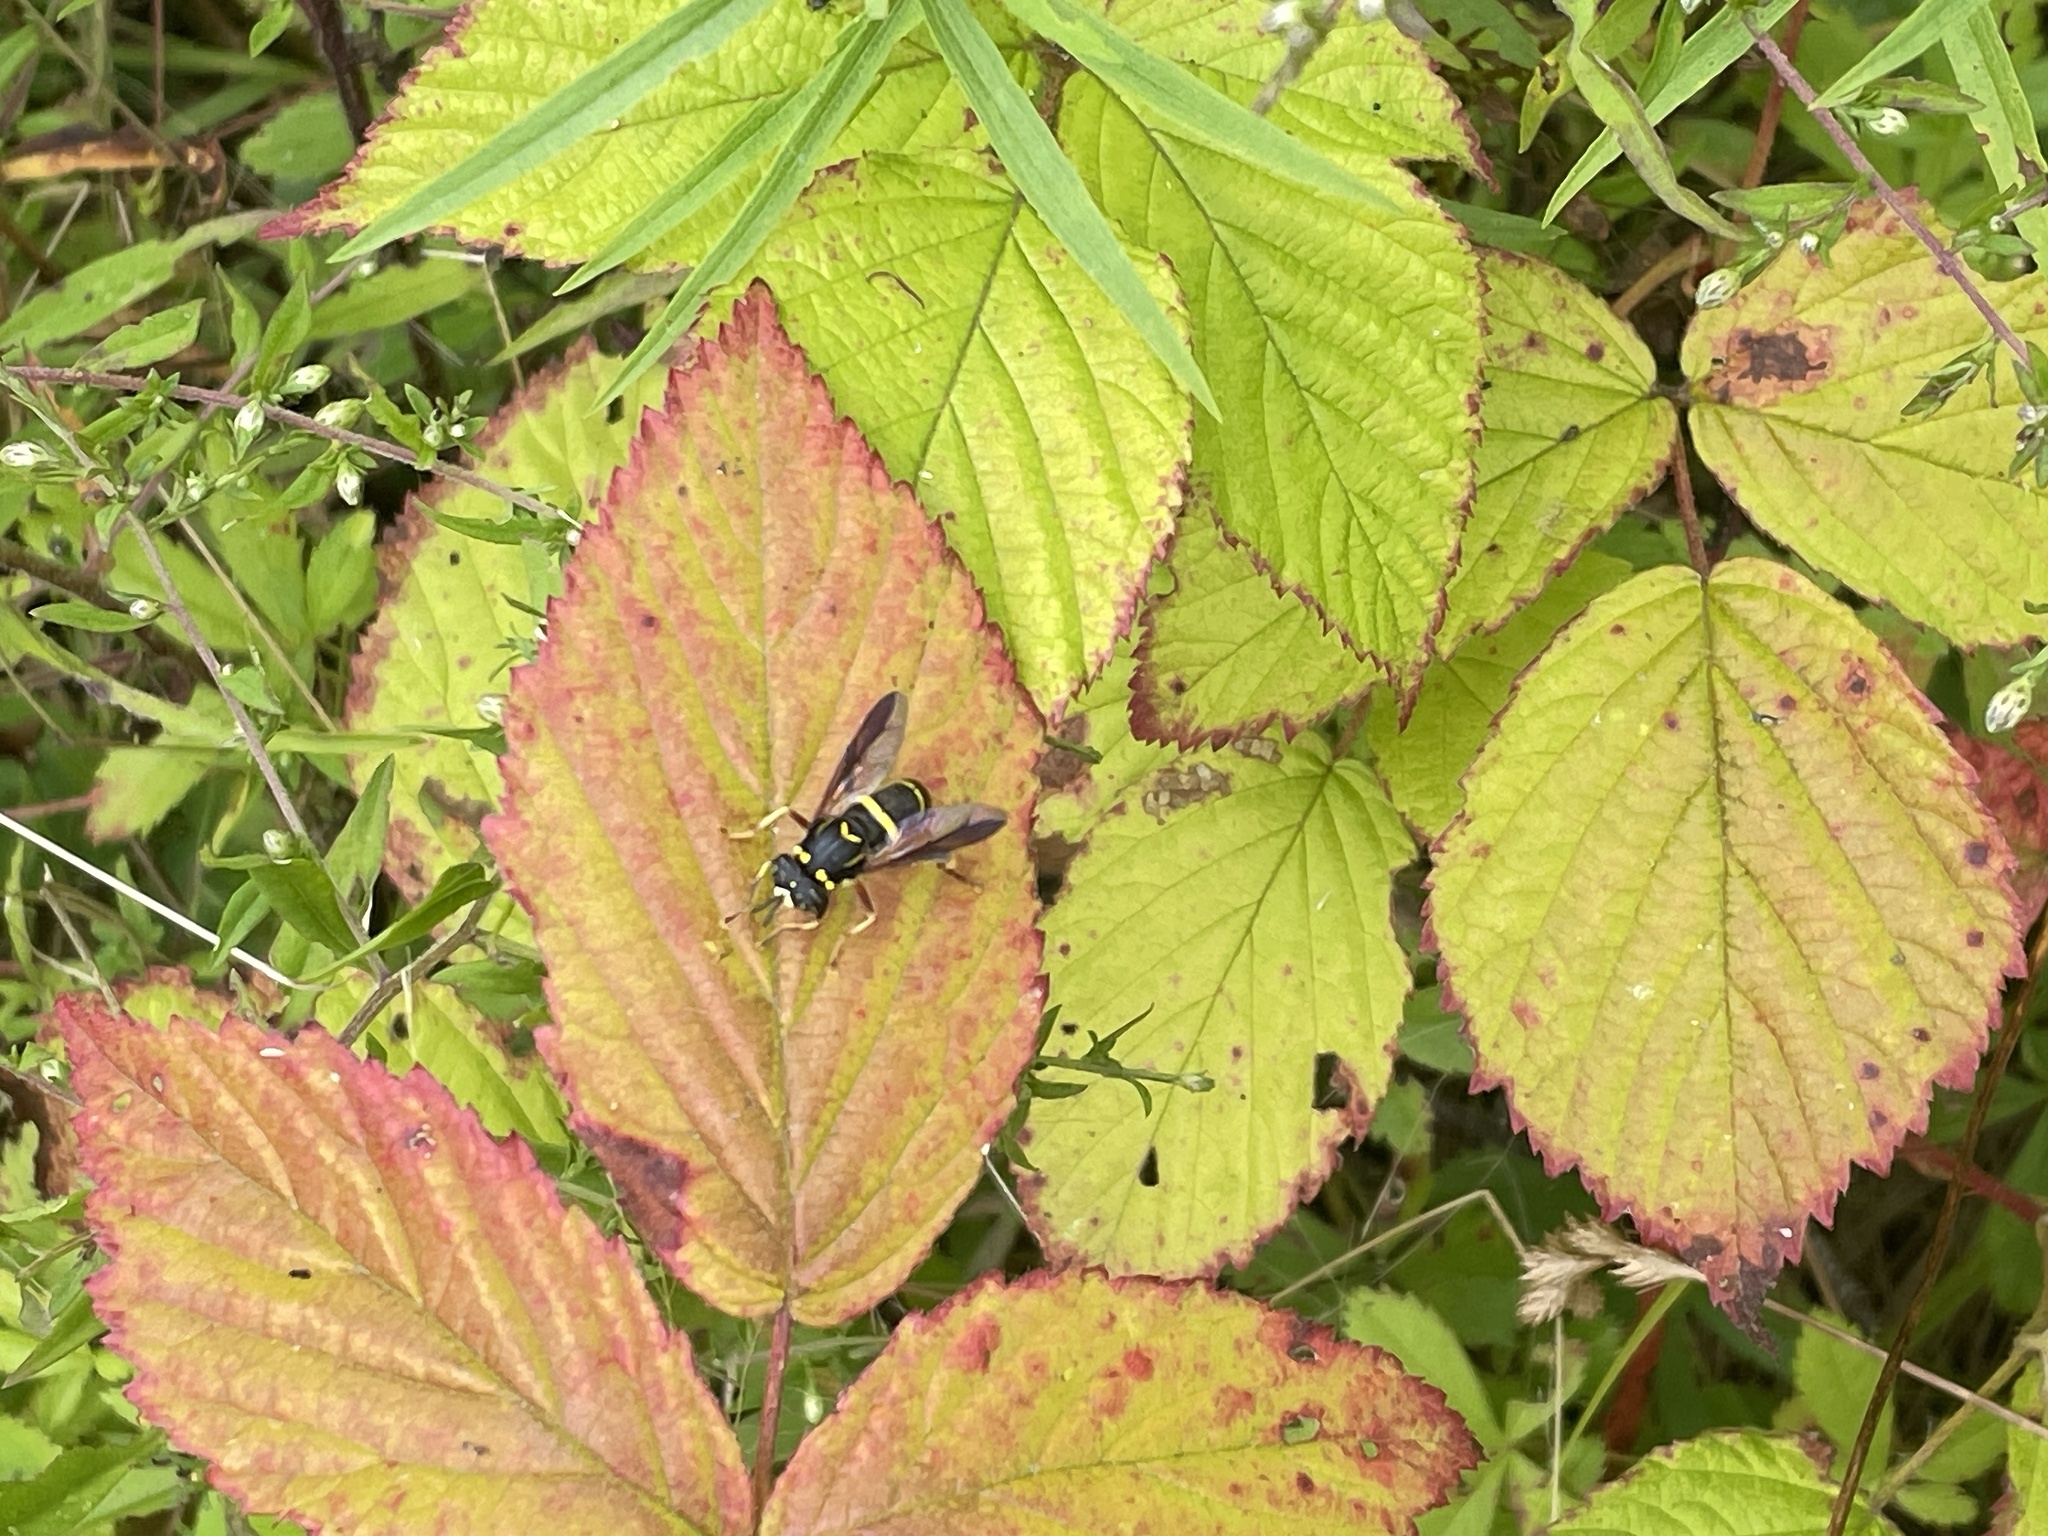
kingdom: Animalia
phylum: Arthropoda
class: Insecta
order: Diptera
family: Syrphidae
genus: Spilomyia
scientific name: Spilomyia sayi
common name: Four-lined hornet fly
